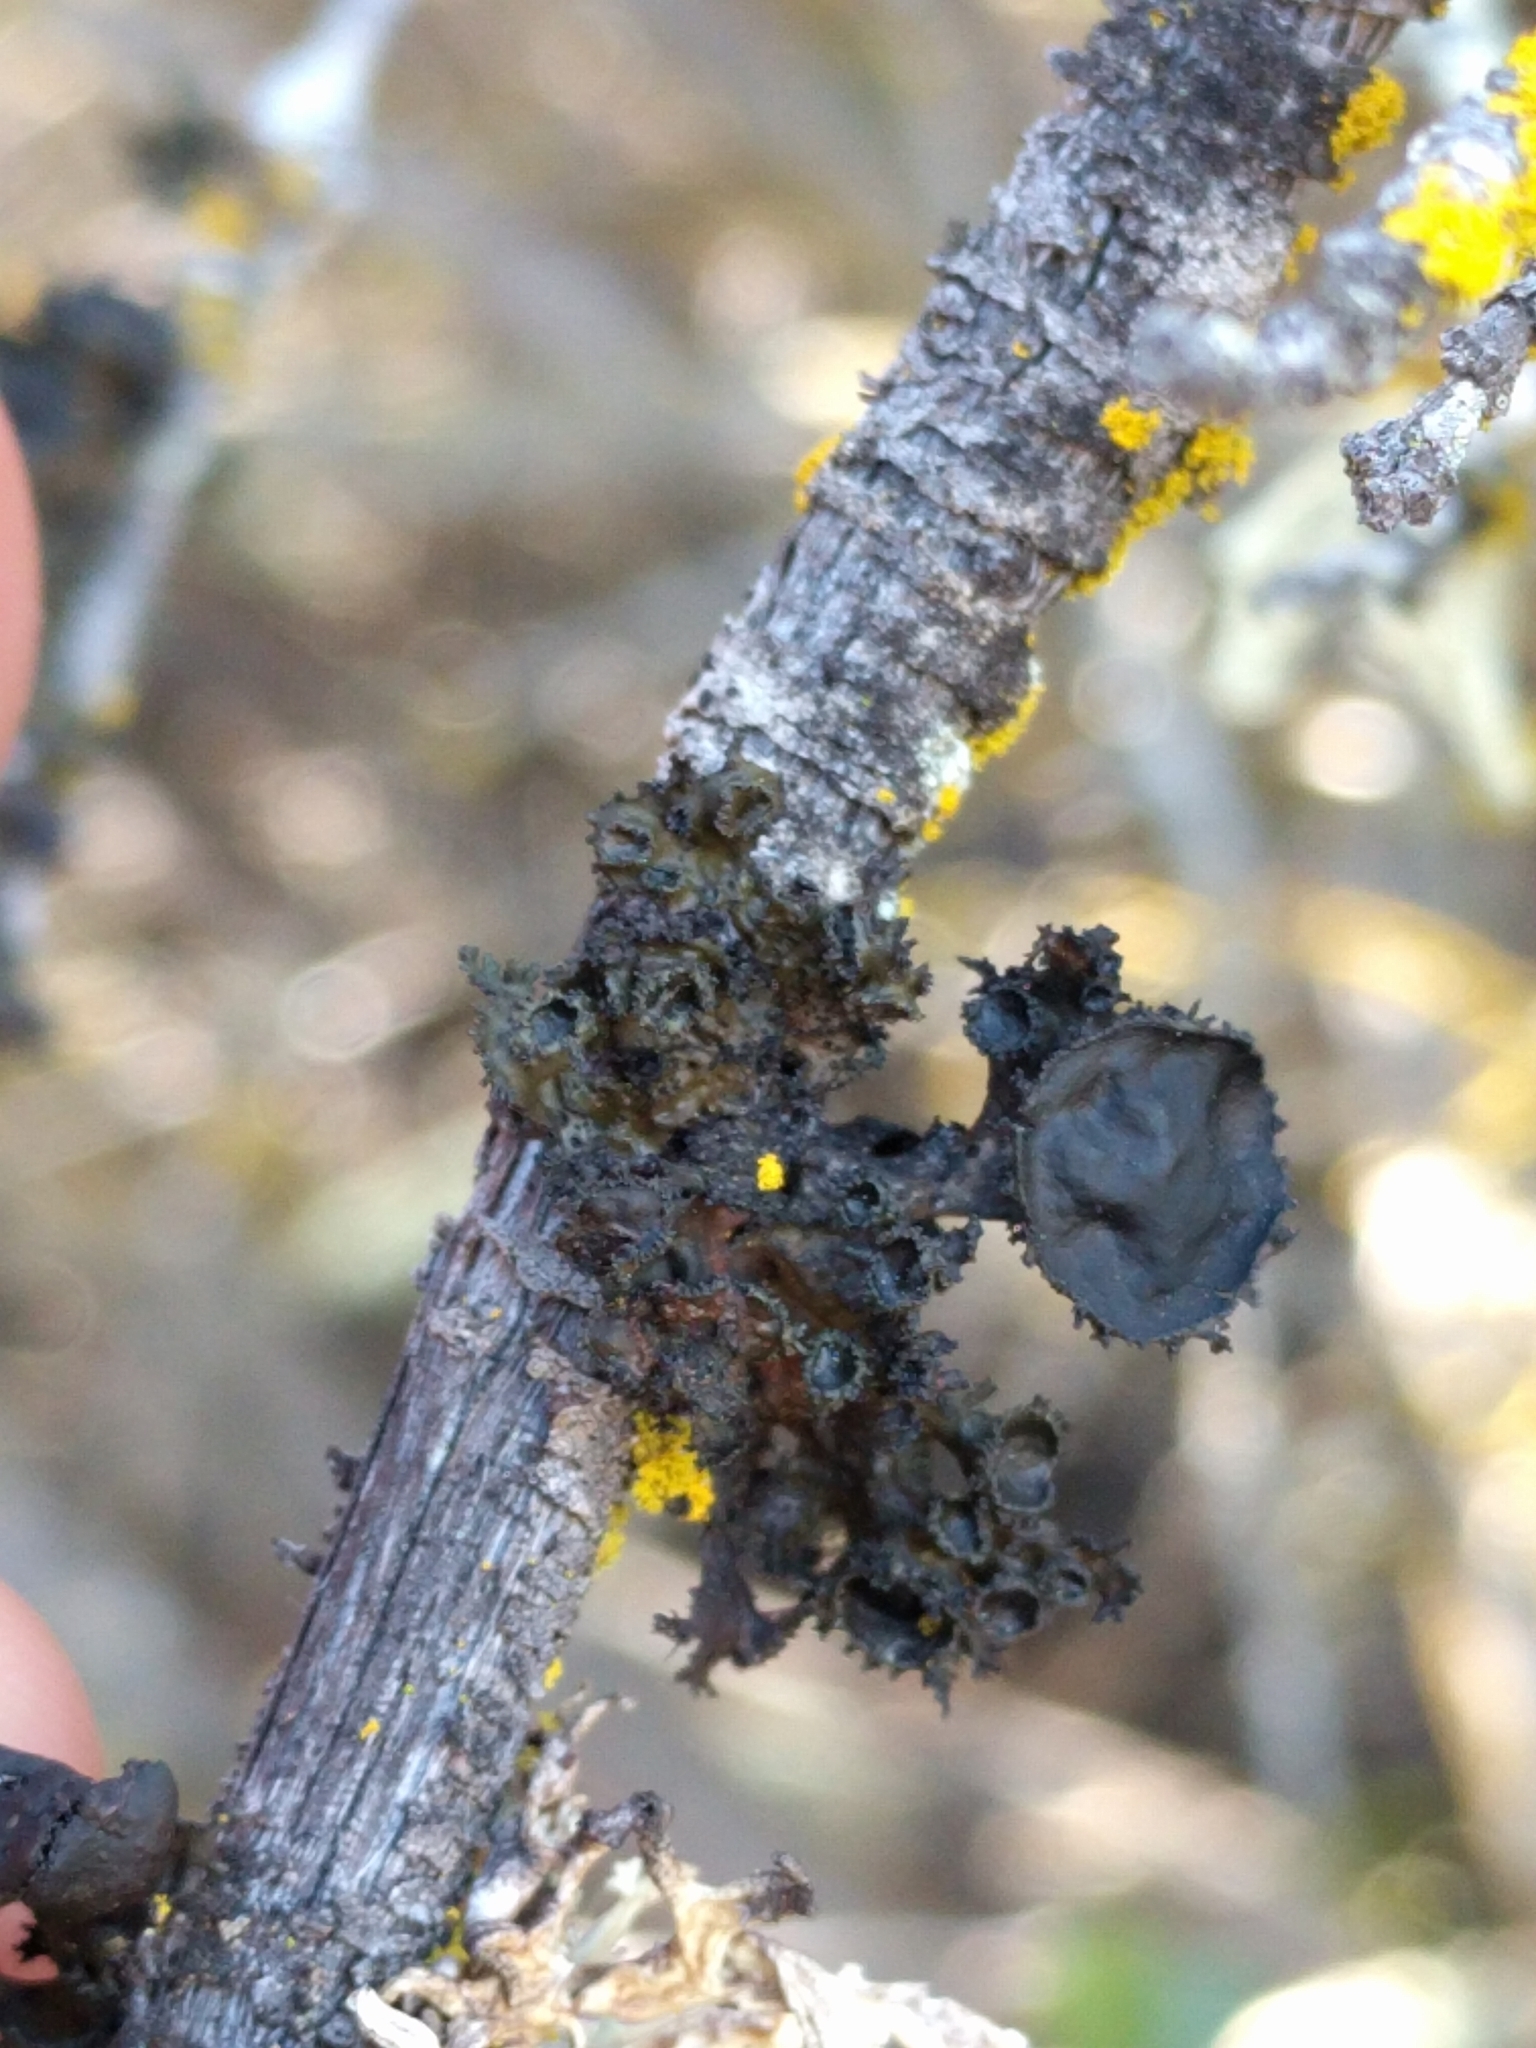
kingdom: Fungi
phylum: Ascomycota
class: Lecanoromycetes
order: Lecanorales
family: Parmeliaceae
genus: Nephromopsis
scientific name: Nephromopsis merrillii
